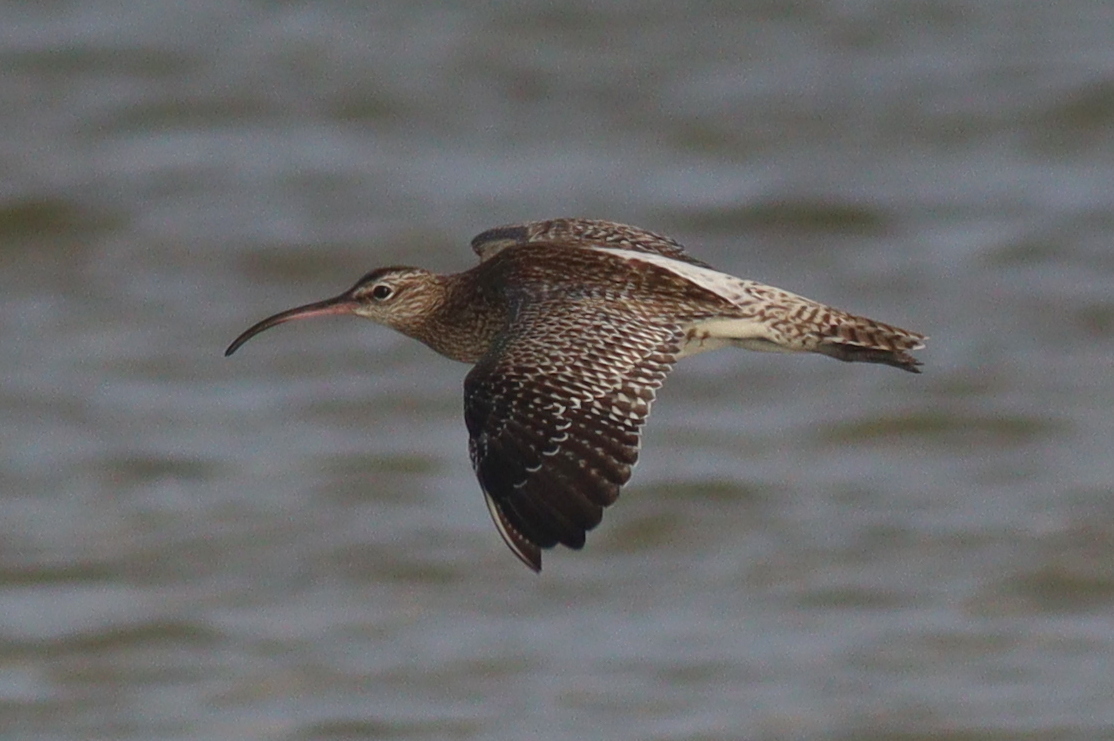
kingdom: Animalia
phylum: Chordata
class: Aves
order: Charadriiformes
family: Scolopacidae
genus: Numenius
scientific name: Numenius phaeopus
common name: Whimbrel
